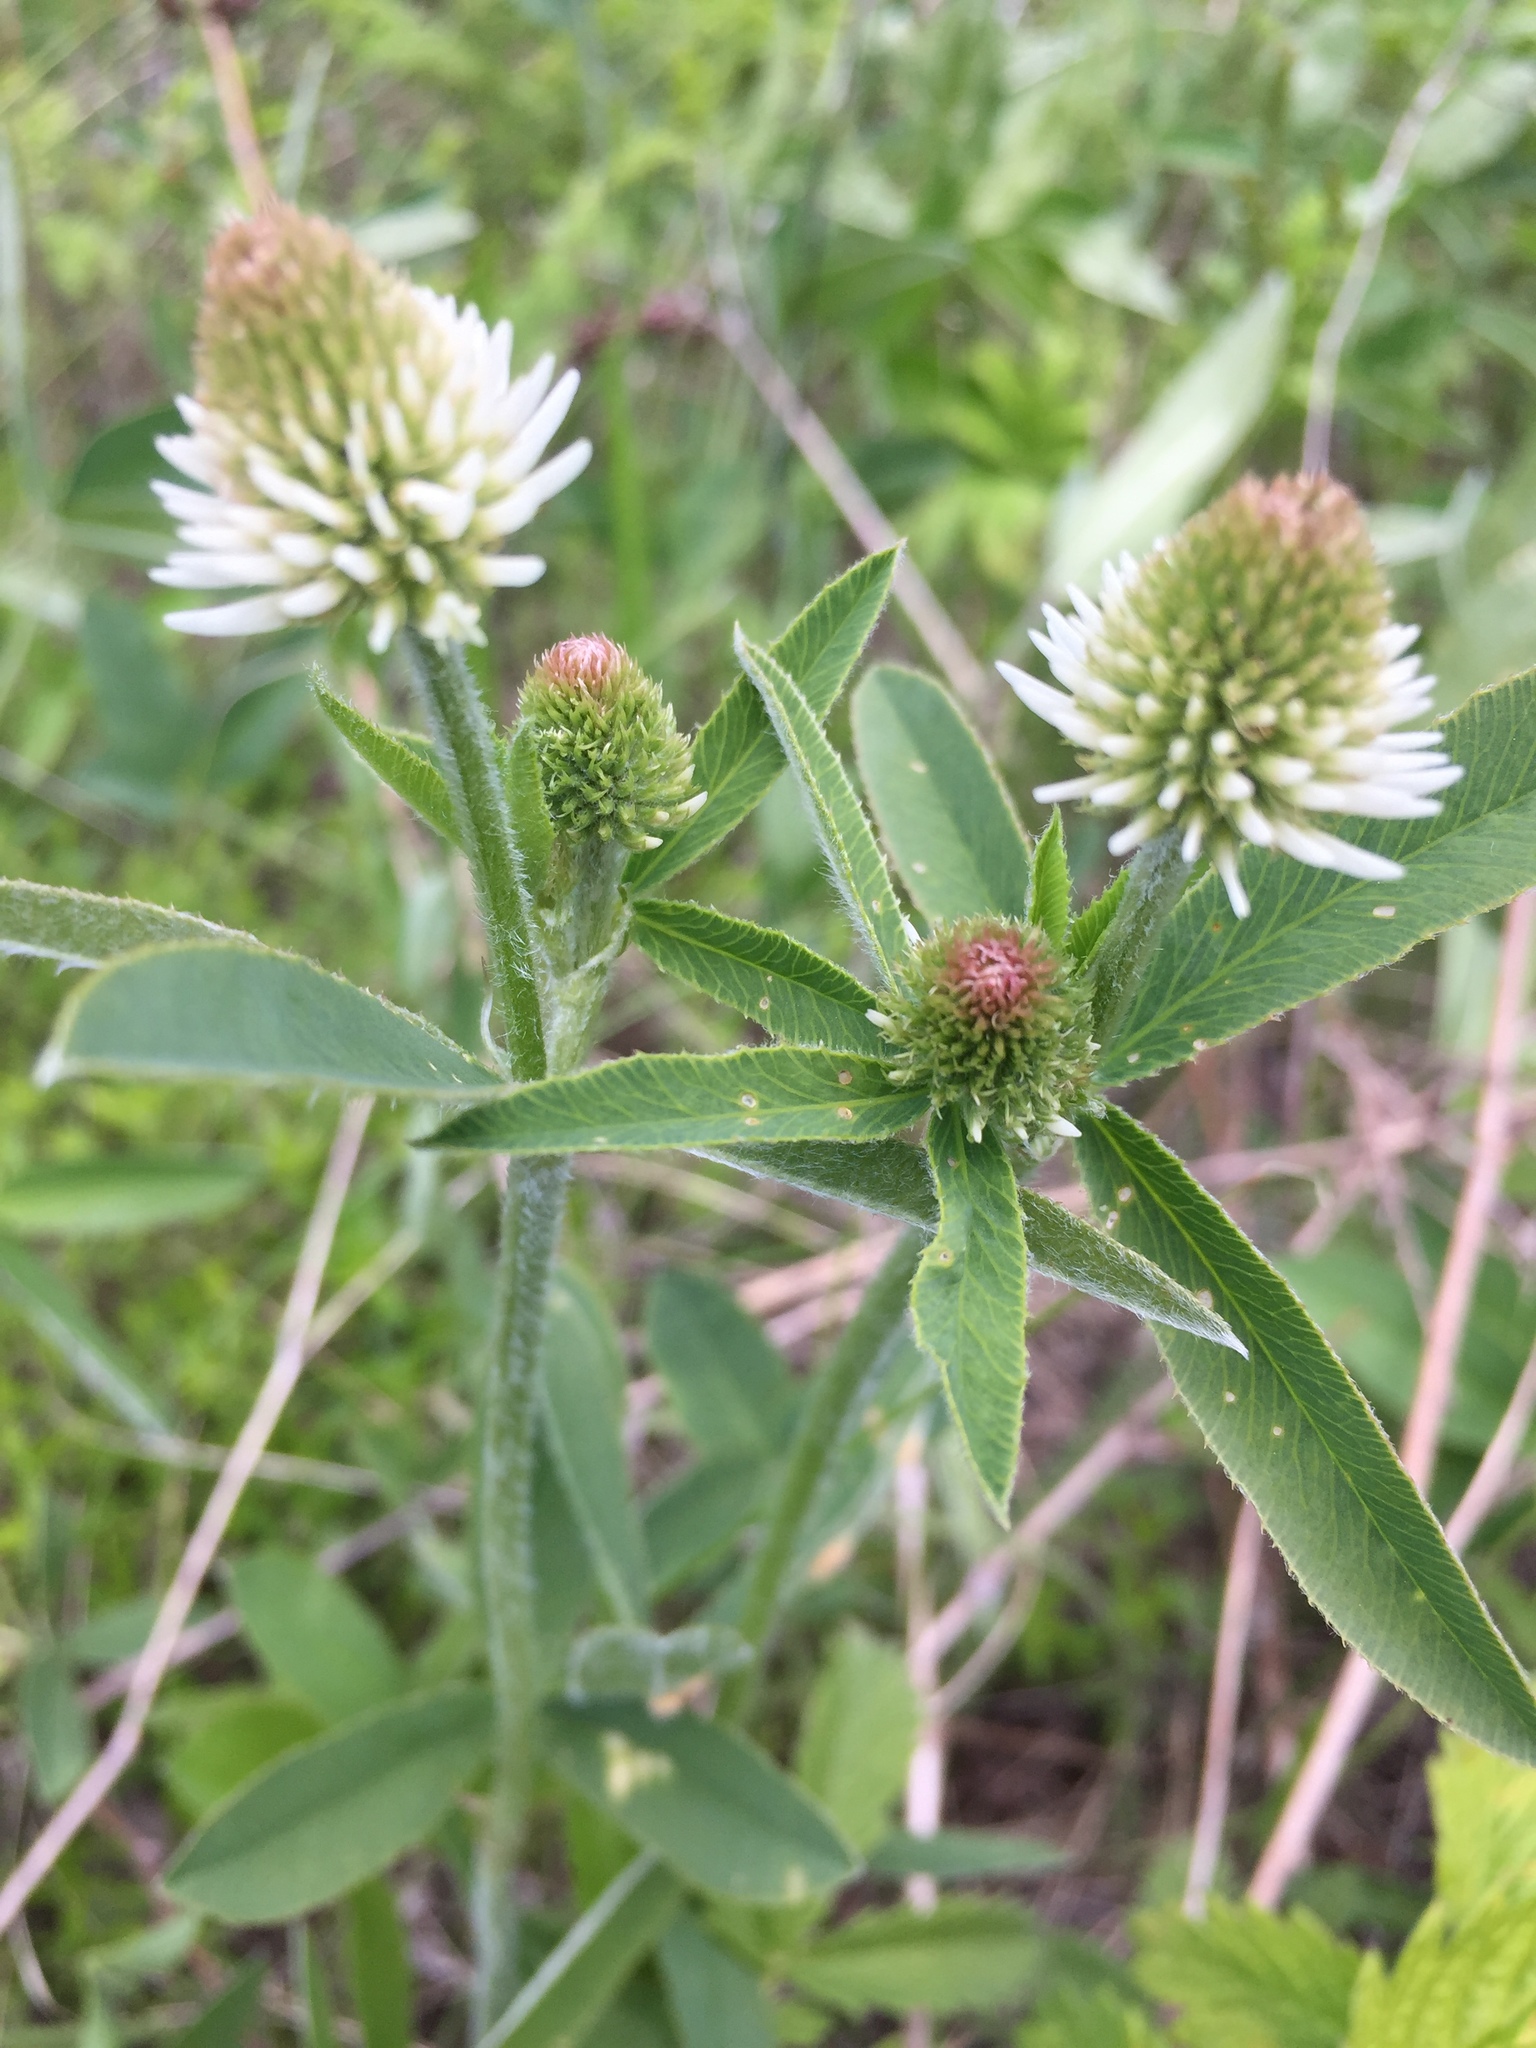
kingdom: Plantae
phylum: Tracheophyta
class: Magnoliopsida
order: Fabales
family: Fabaceae
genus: Trifolium
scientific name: Trifolium montanum
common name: Mountain clover
